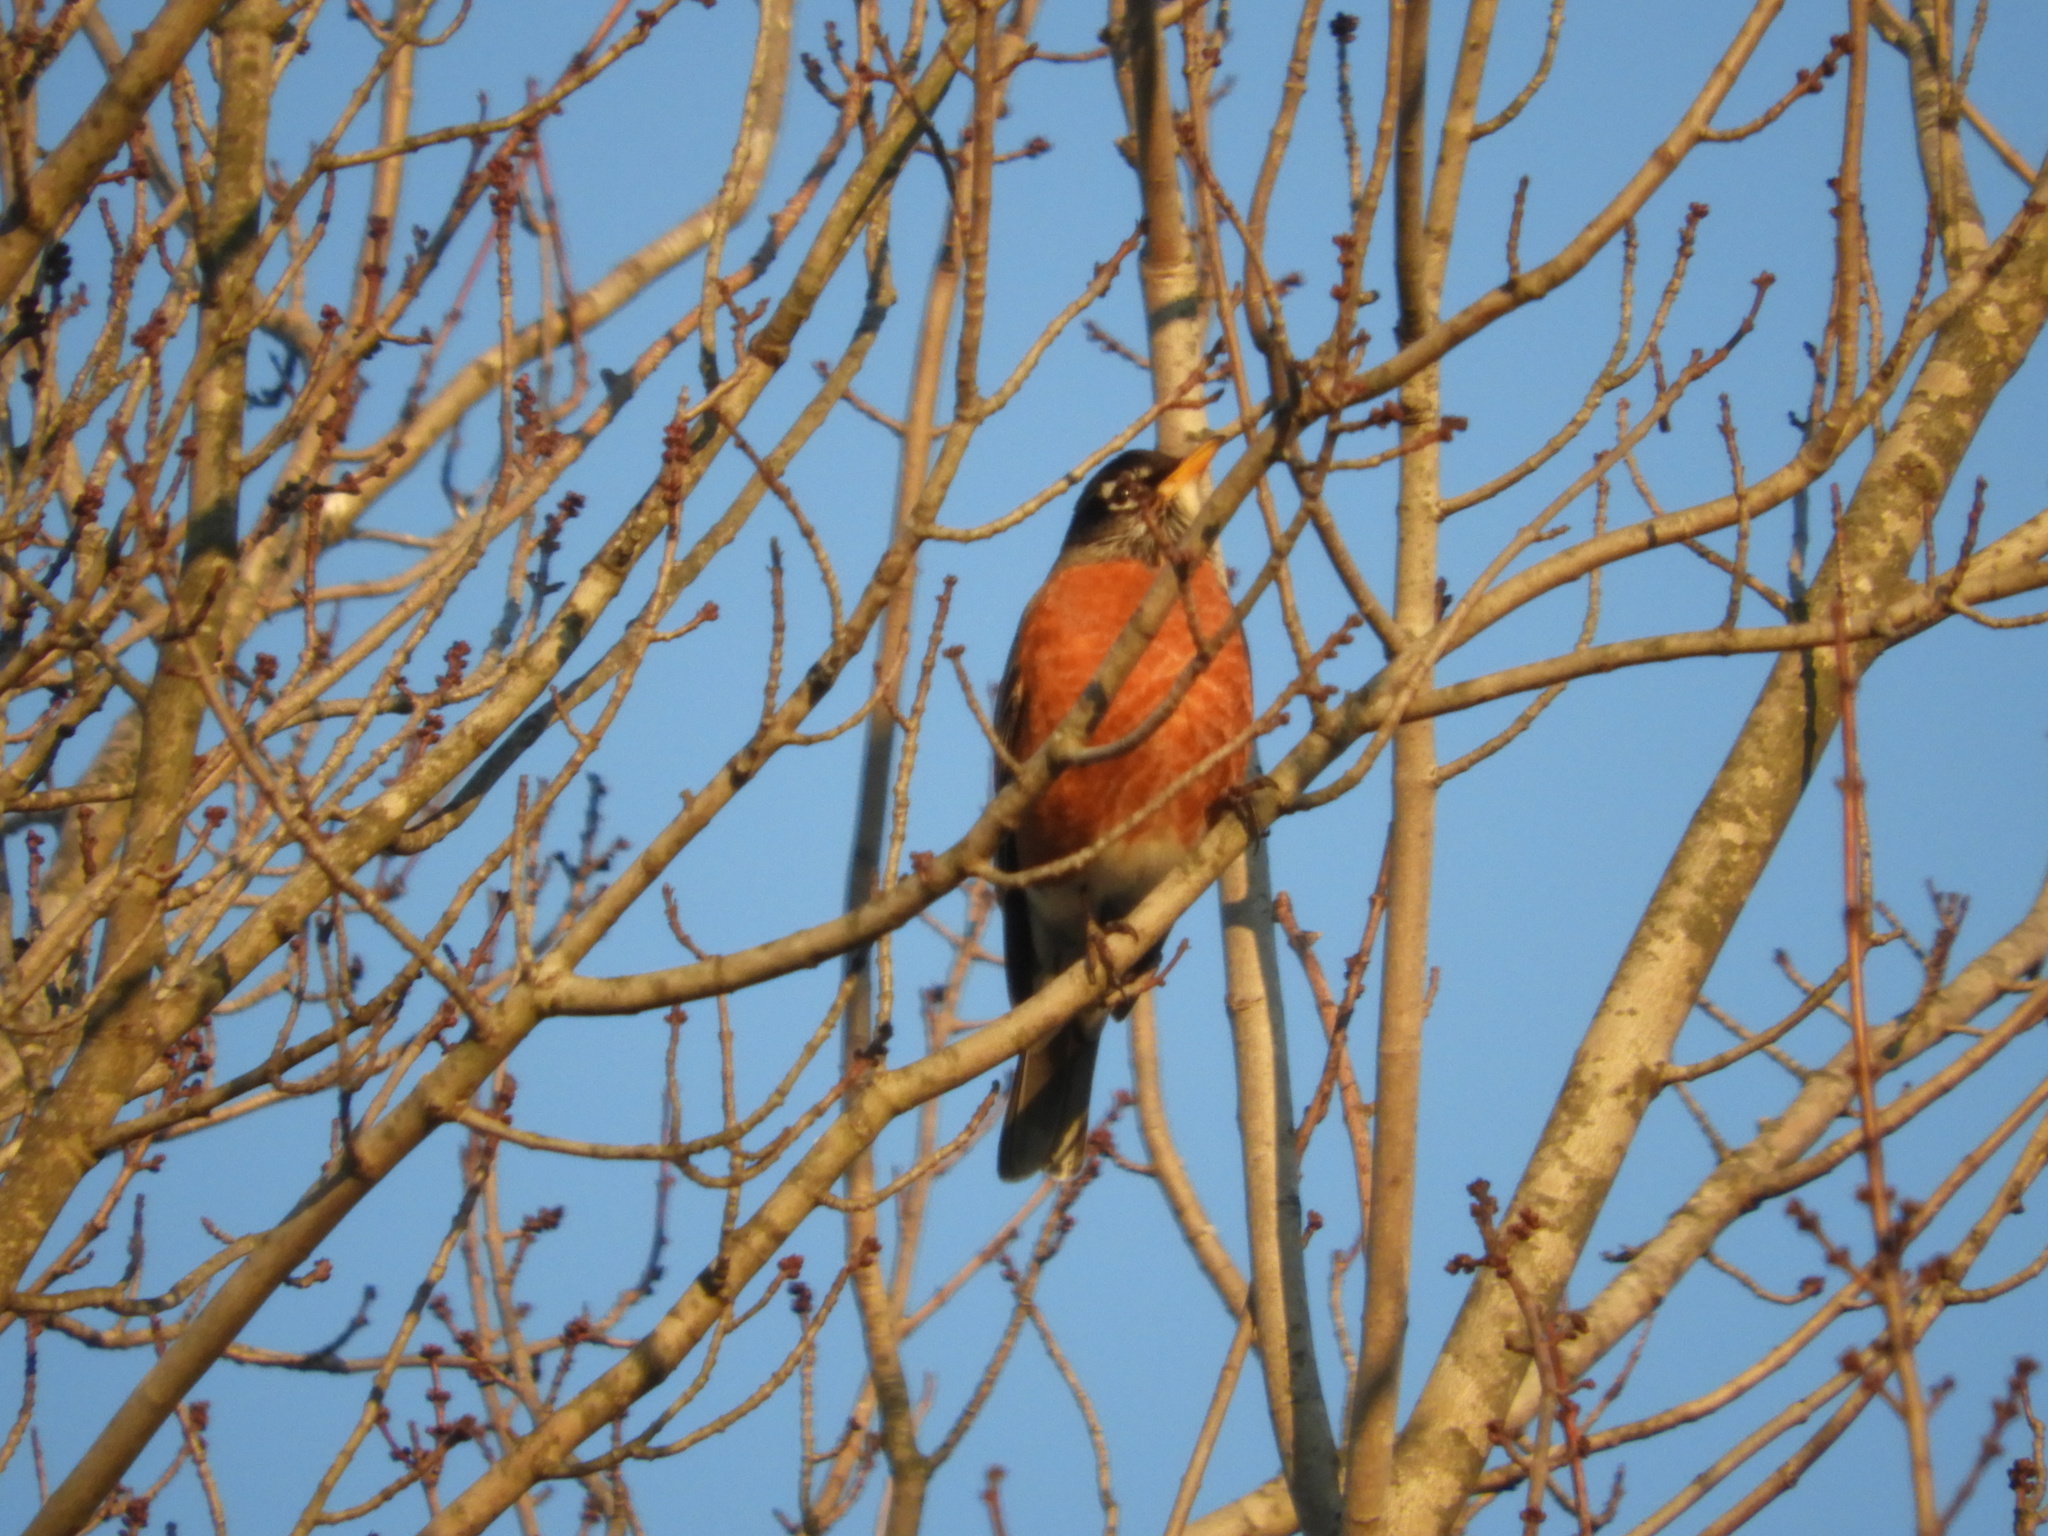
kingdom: Animalia
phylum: Chordata
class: Aves
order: Passeriformes
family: Turdidae
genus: Turdus
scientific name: Turdus migratorius
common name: American robin
